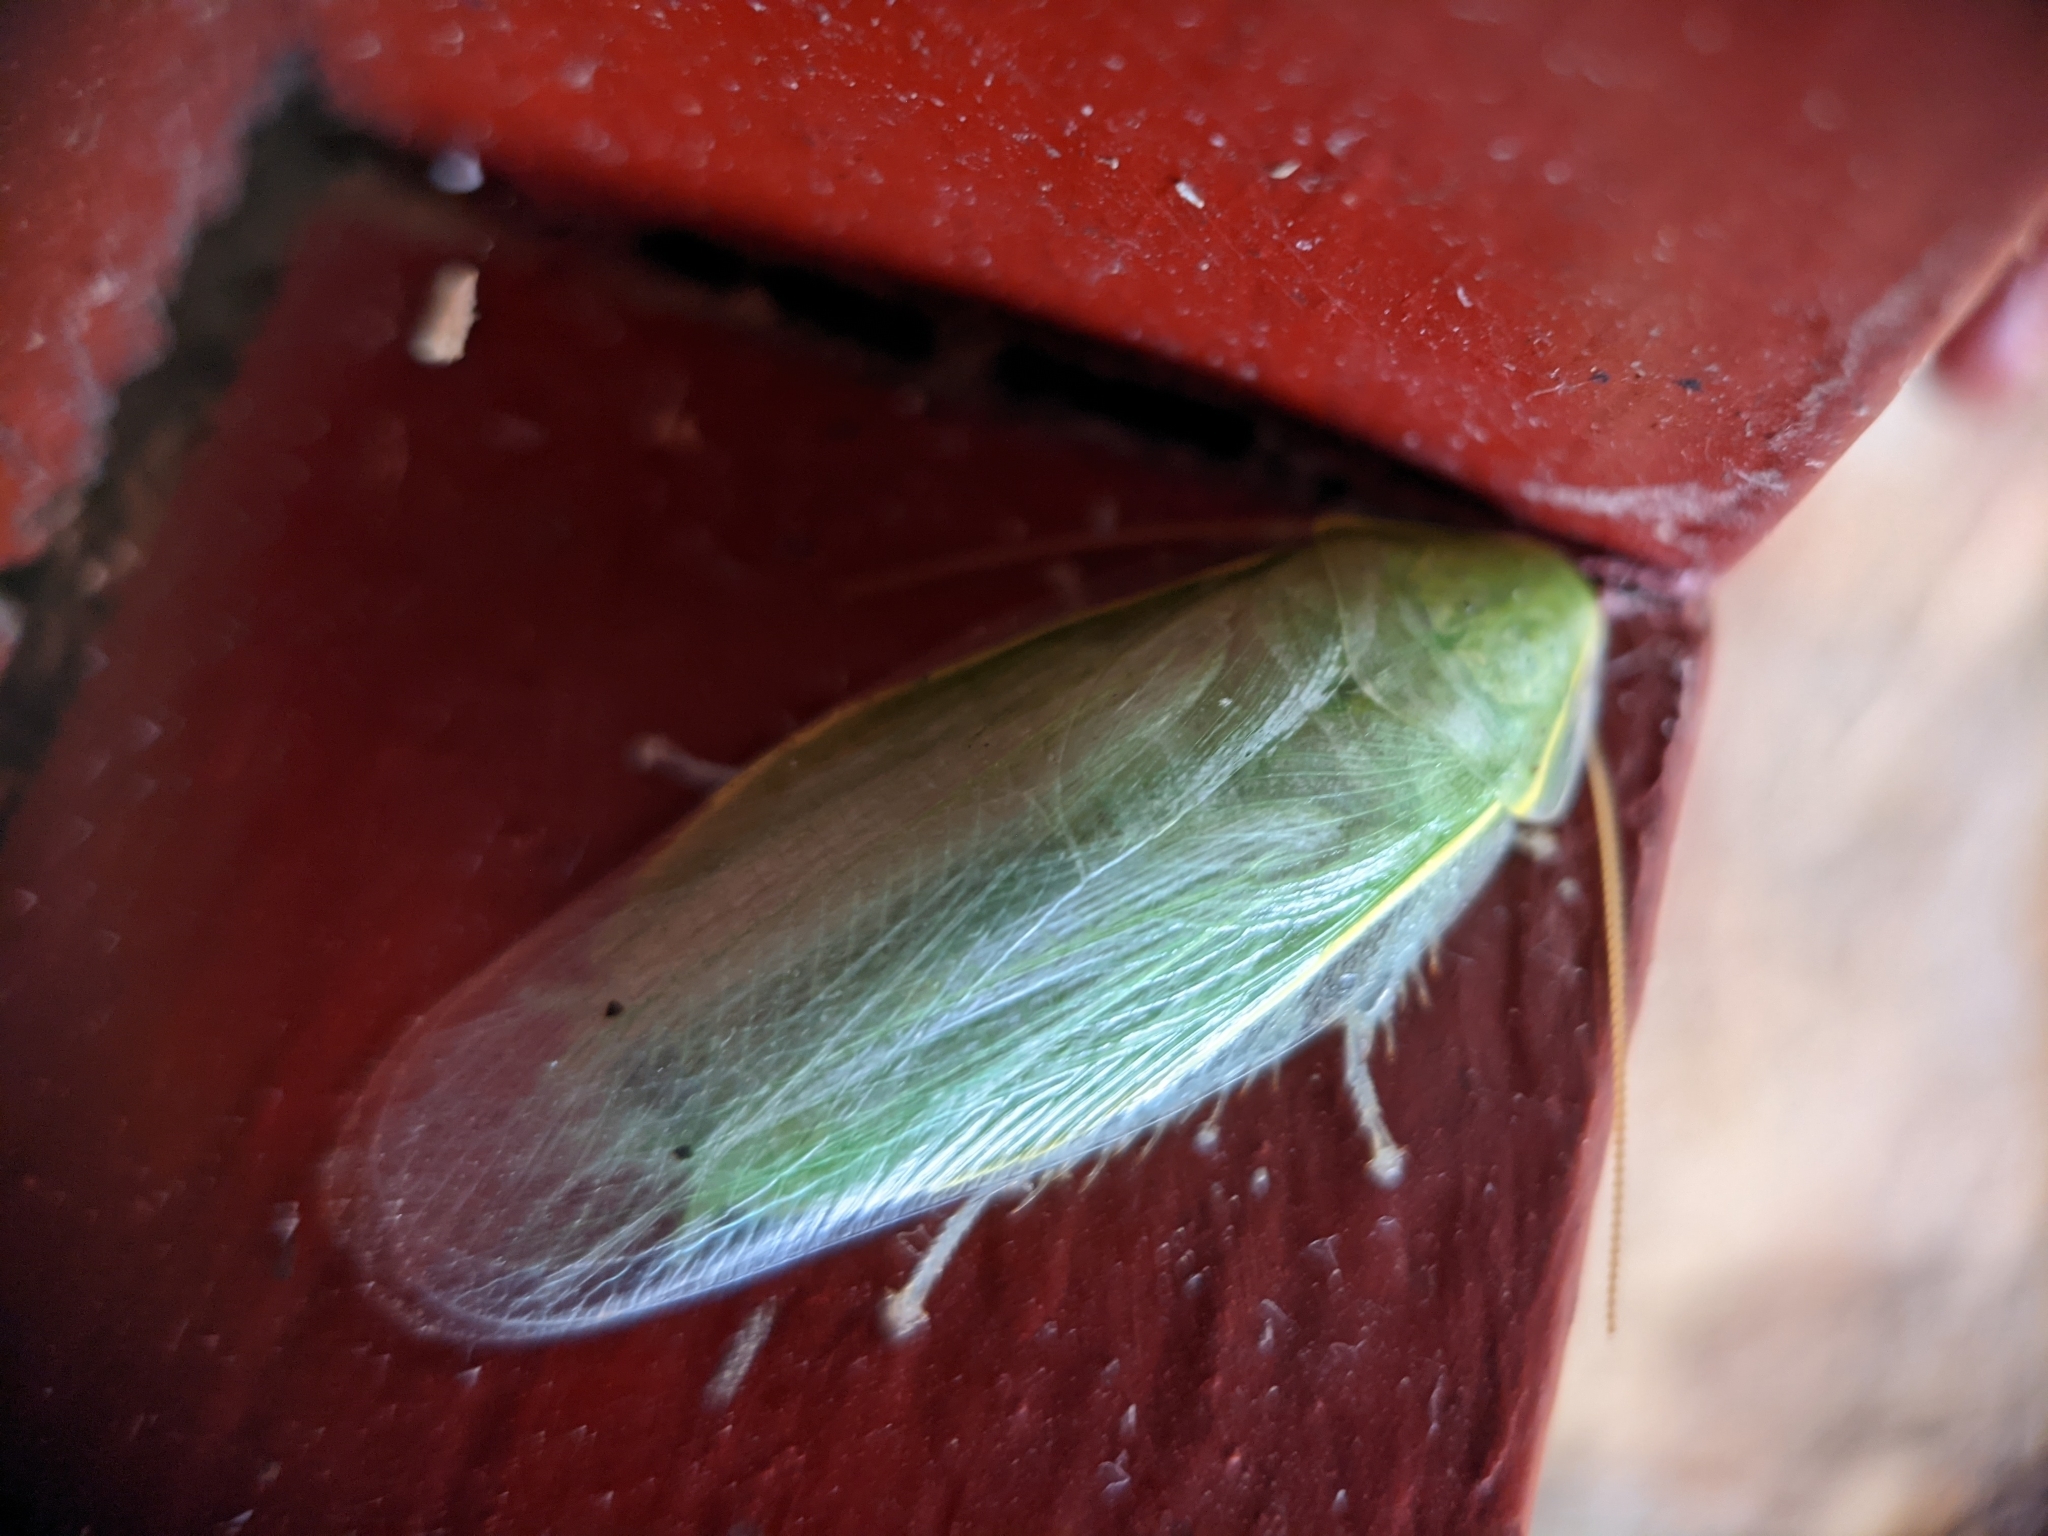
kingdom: Animalia
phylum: Arthropoda
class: Insecta
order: Blattodea
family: Blaberidae
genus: Panchlora
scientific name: Panchlora nivea
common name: Cuban cockroach
